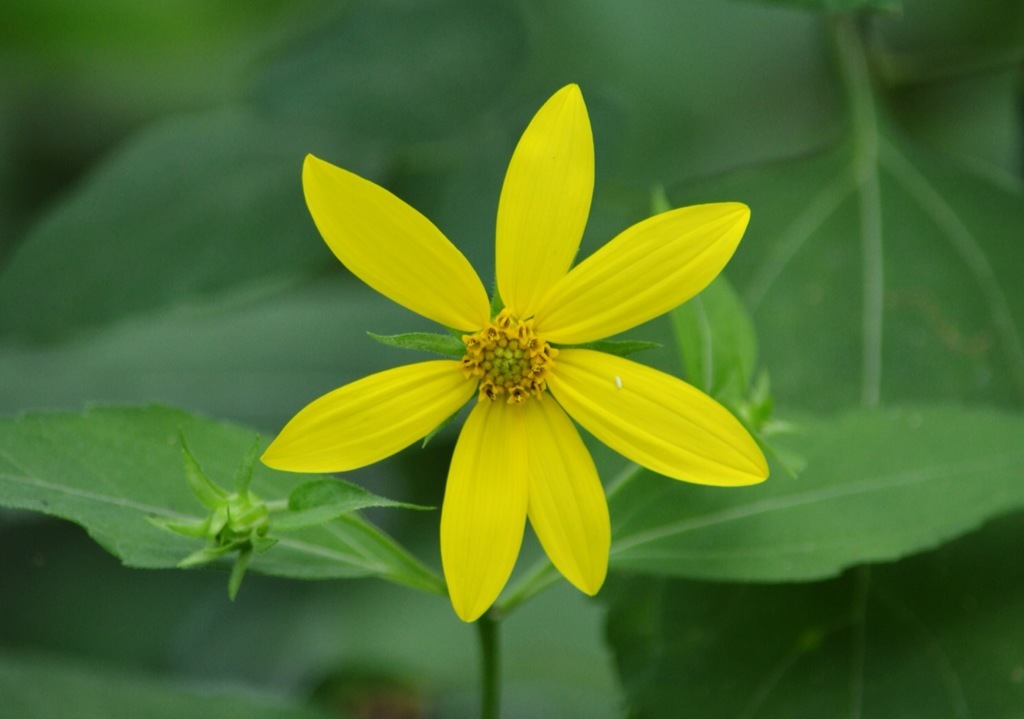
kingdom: Plantae
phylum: Tracheophyta
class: Magnoliopsida
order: Asterales
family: Asteraceae
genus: Helianthus
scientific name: Helianthus microcephalus
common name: Woodland sunflower
